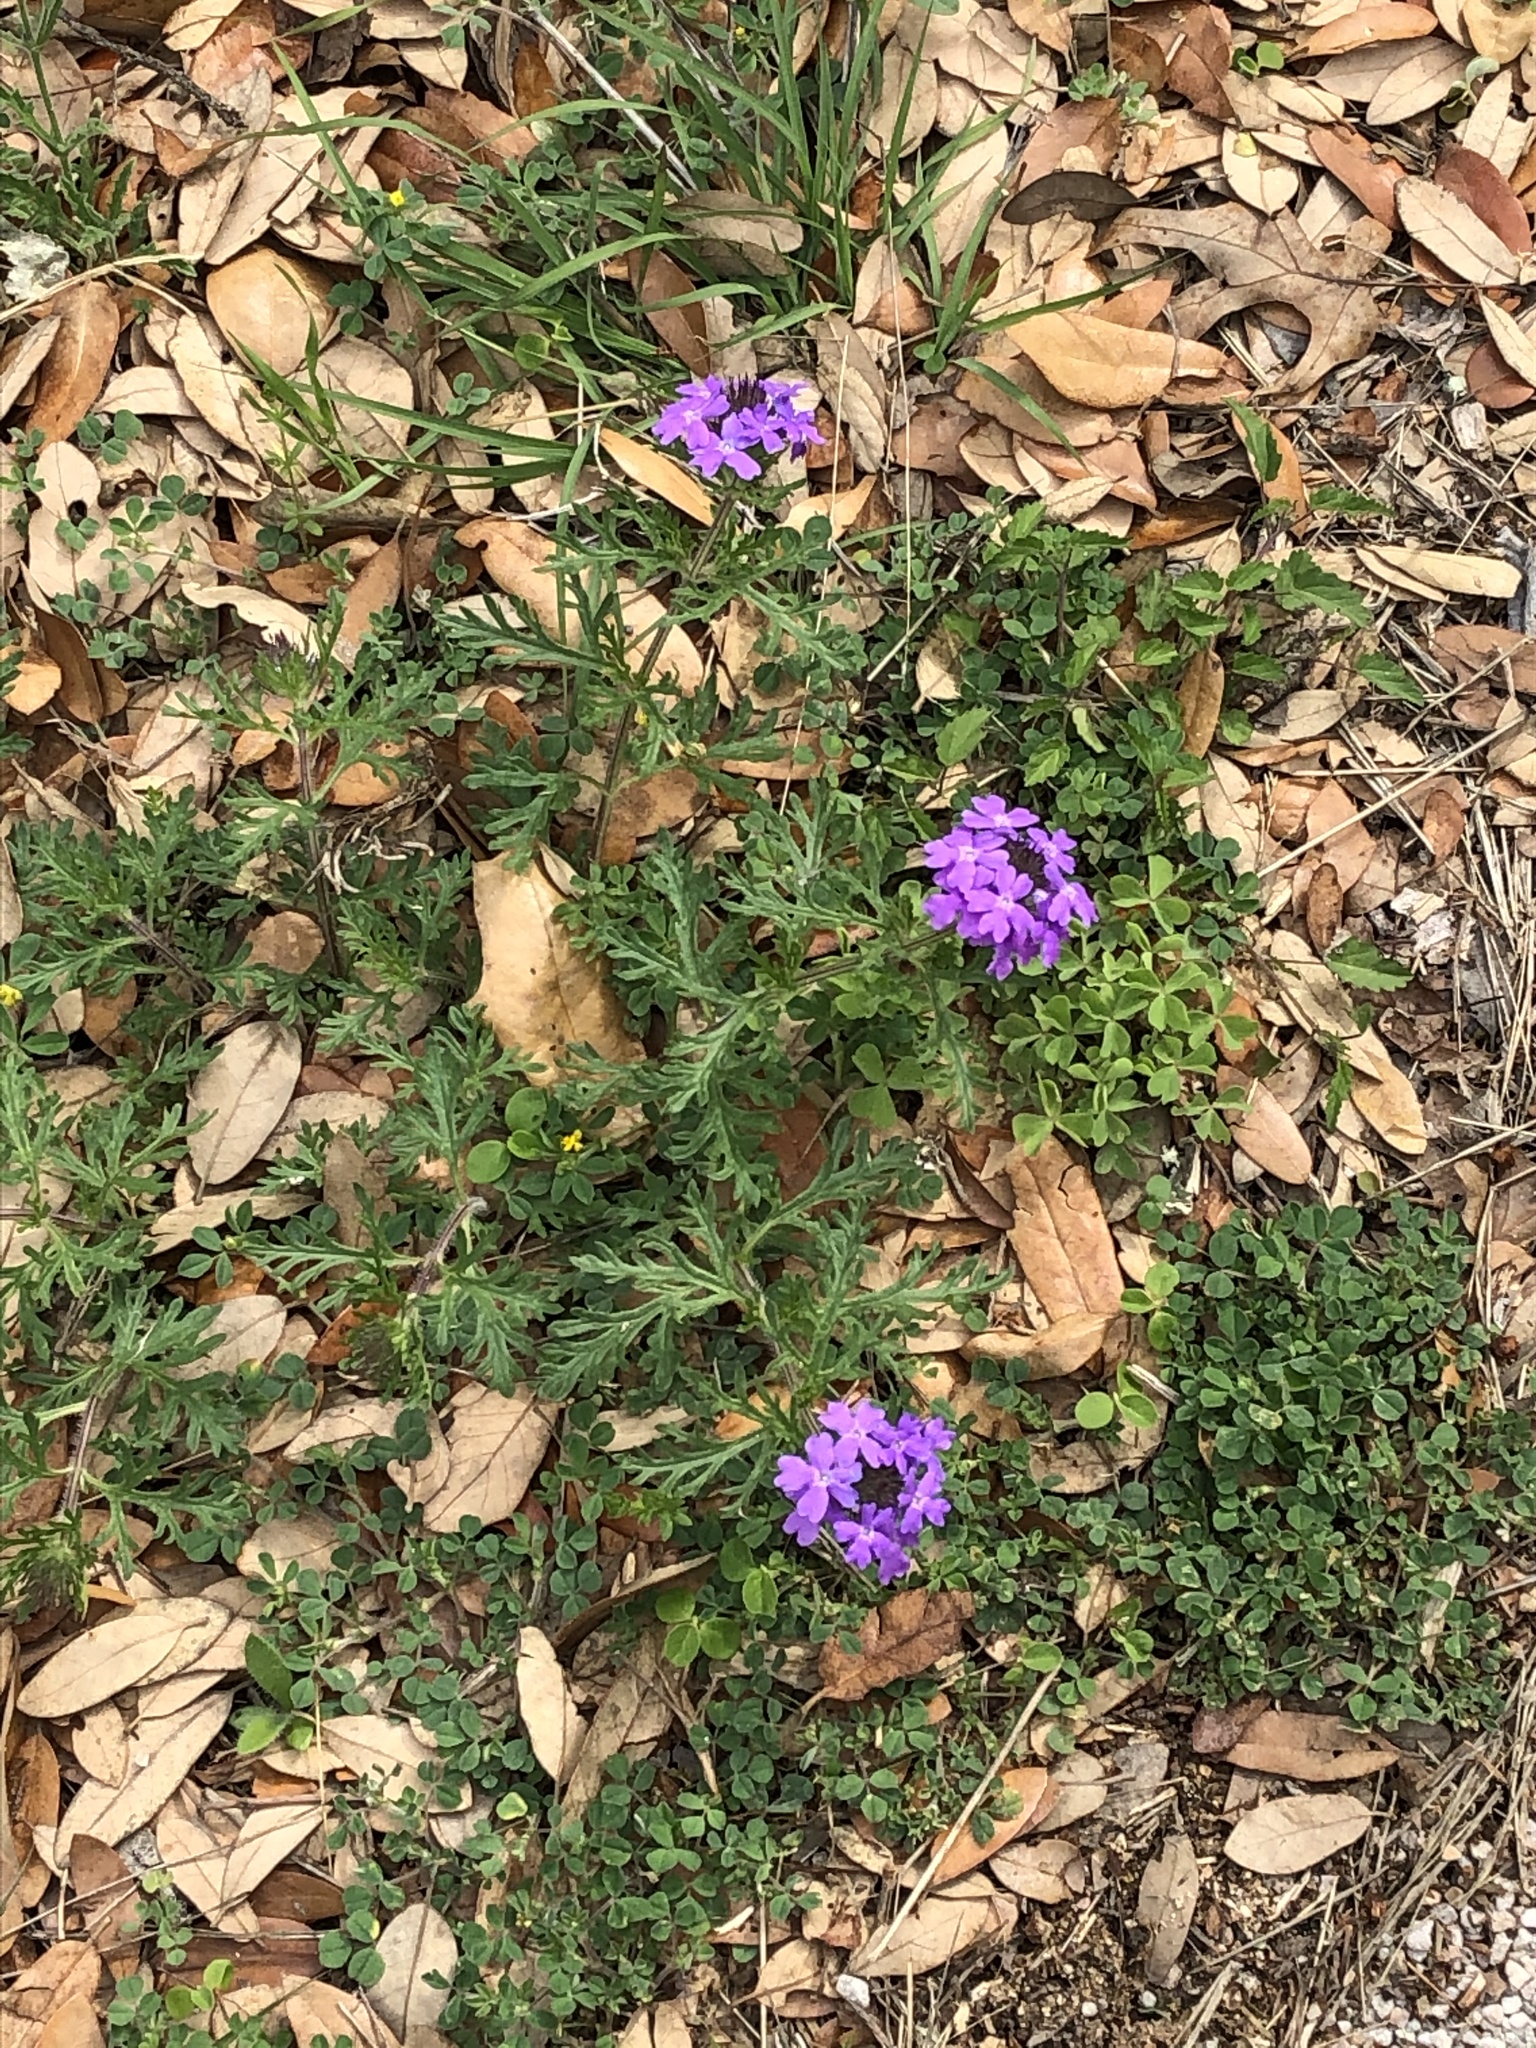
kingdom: Plantae
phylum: Tracheophyta
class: Magnoliopsida
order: Lamiales
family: Verbenaceae
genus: Verbena
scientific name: Verbena bipinnatifida
